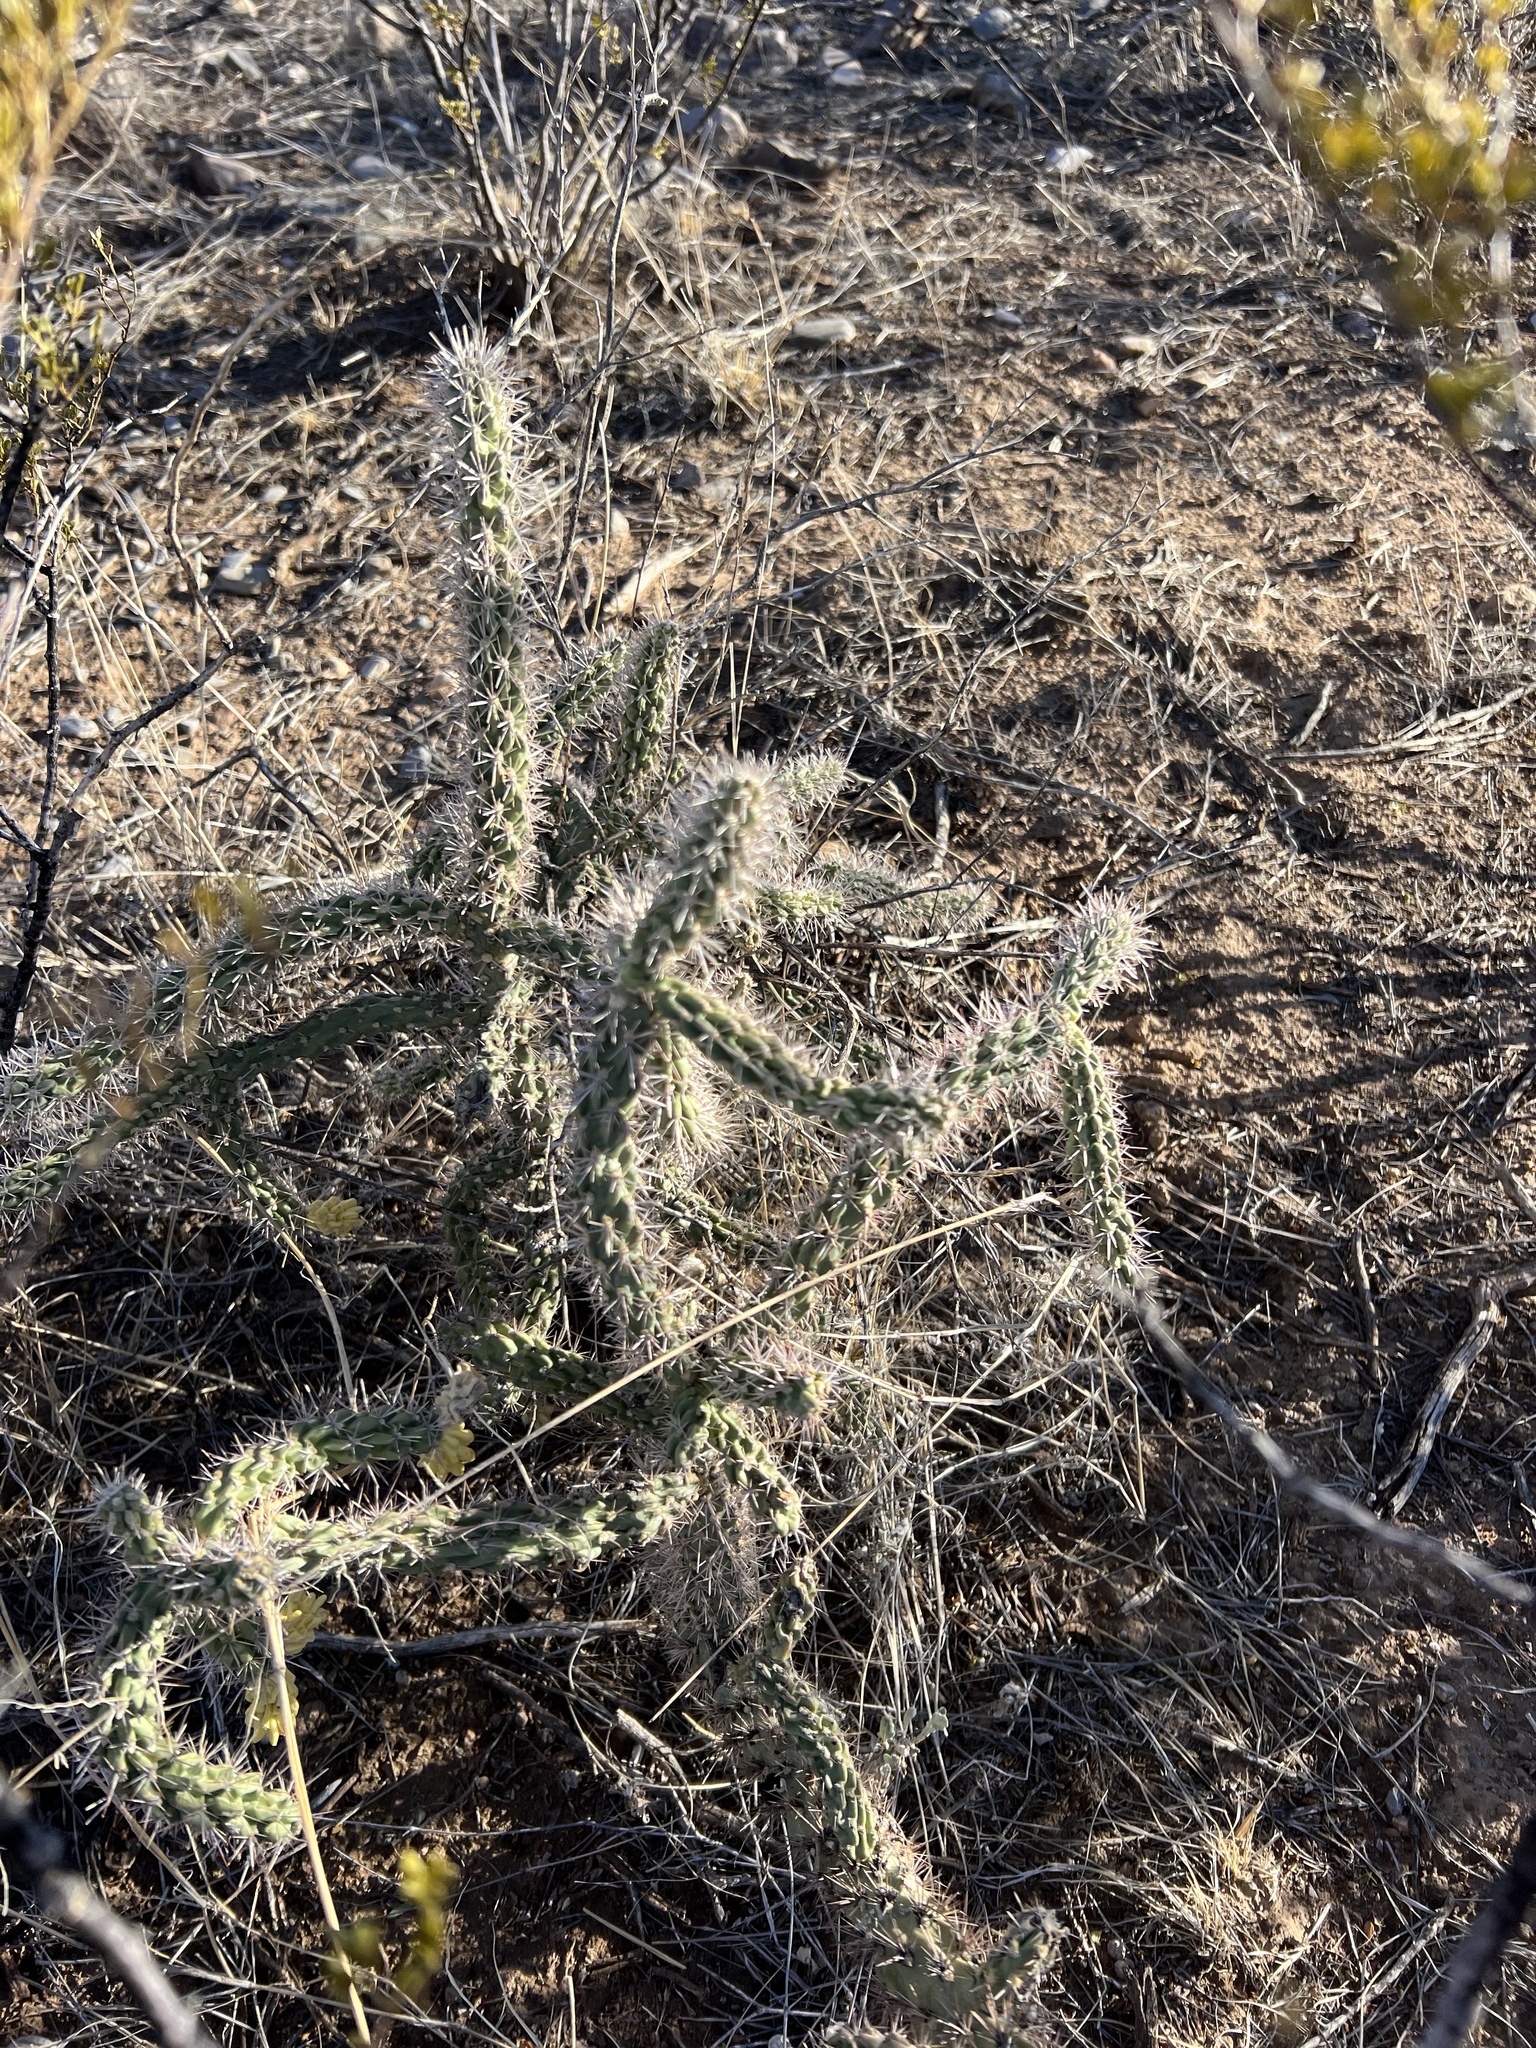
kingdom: Plantae
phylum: Tracheophyta
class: Magnoliopsida
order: Caryophyllales
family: Cactaceae
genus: Cylindropuntia
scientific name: Cylindropuntia imbricata
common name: Candelabrum cactus
